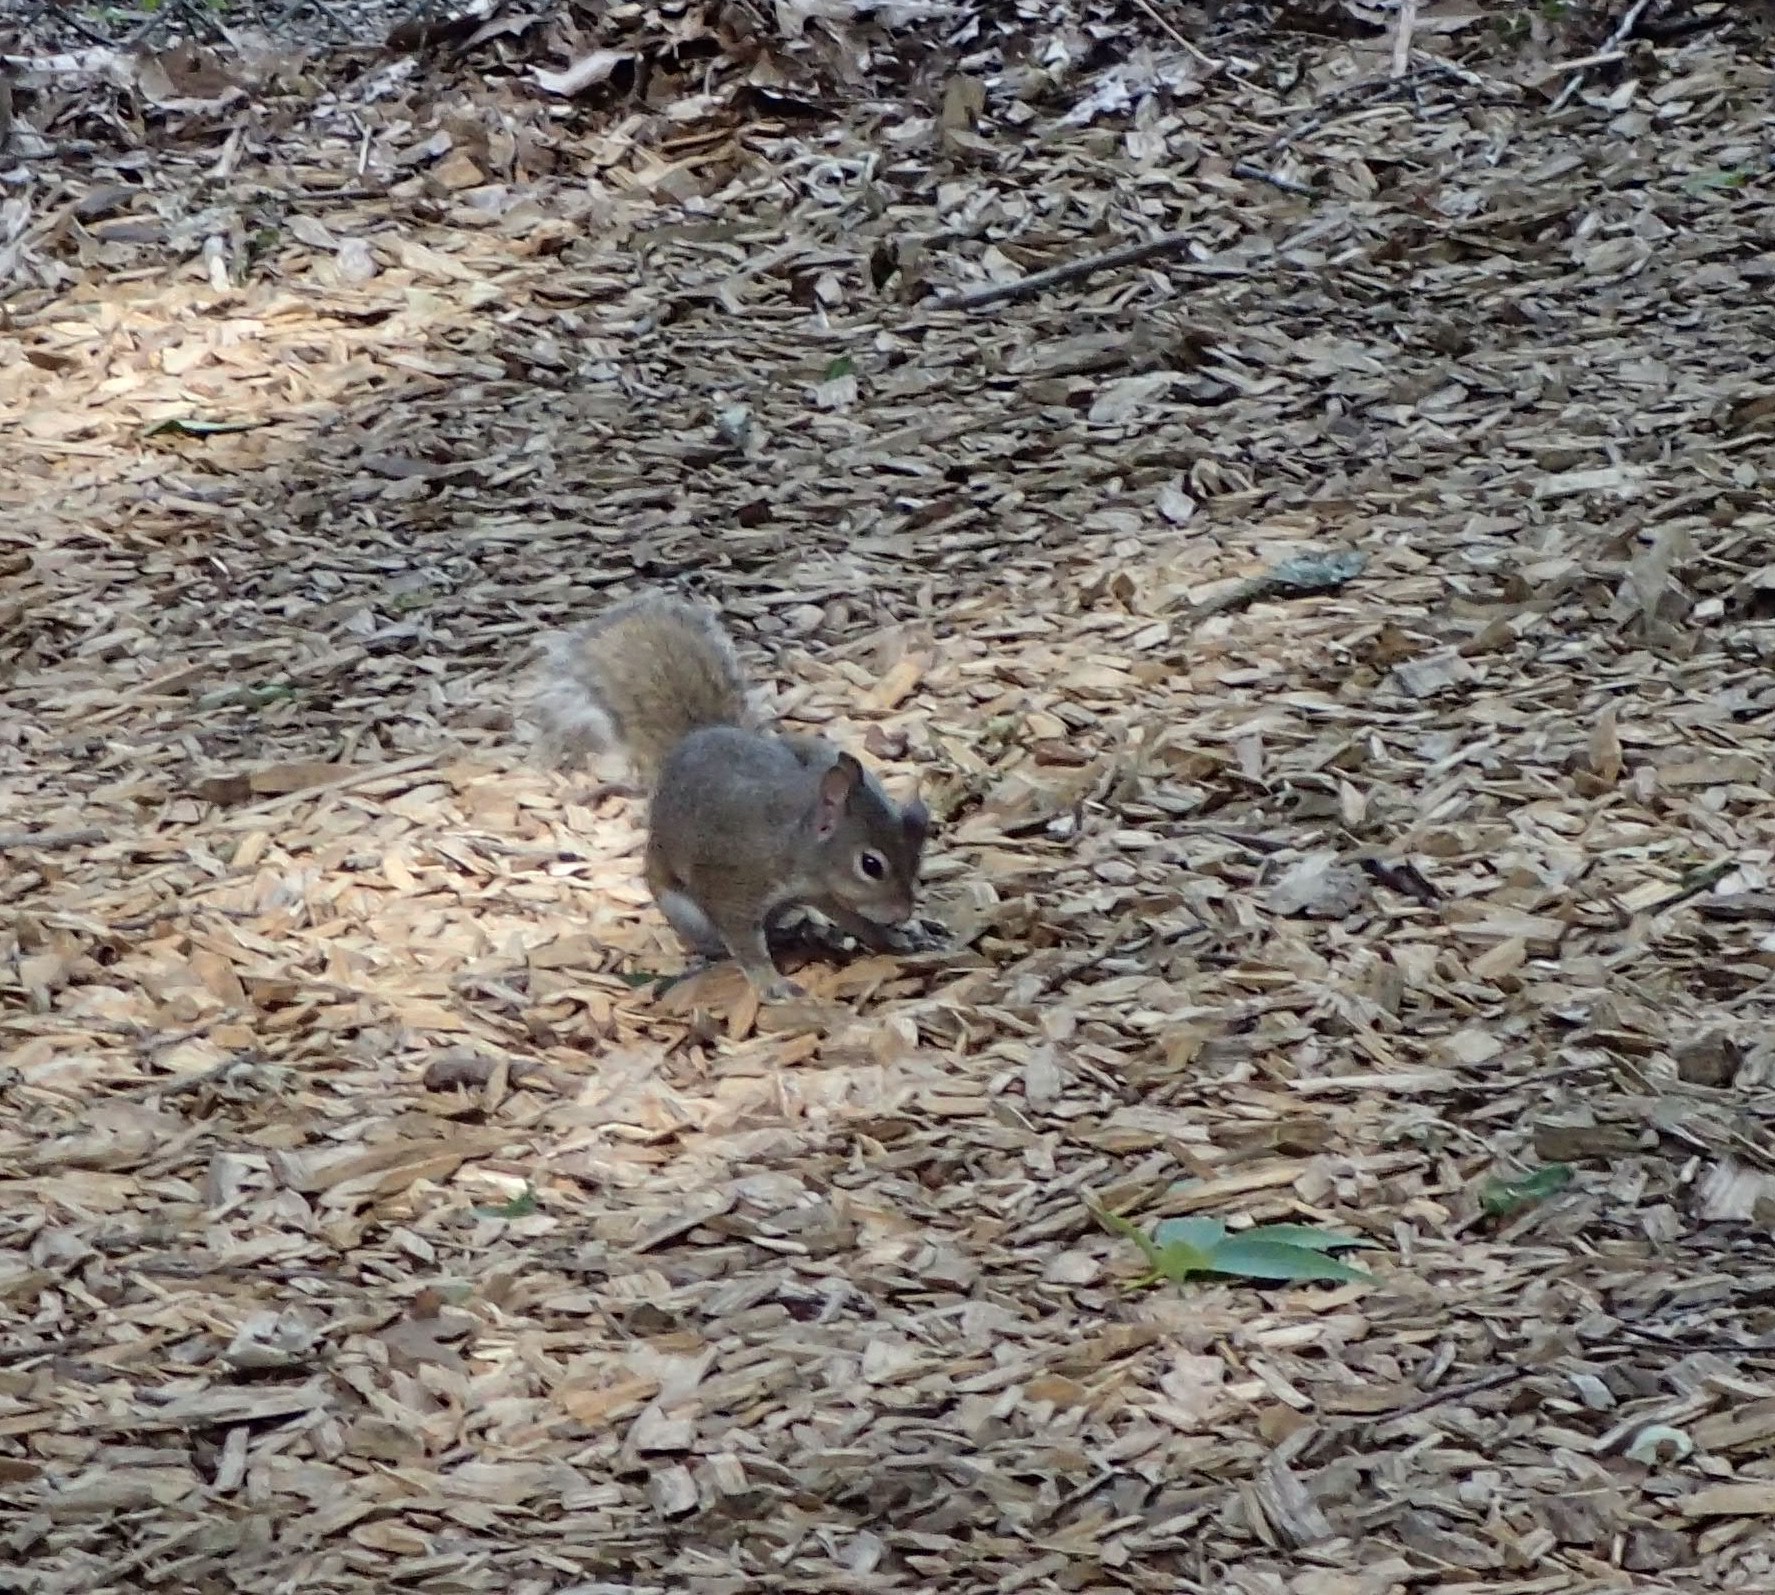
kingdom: Animalia
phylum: Chordata
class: Mammalia
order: Rodentia
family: Sciuridae
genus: Sciurus
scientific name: Sciurus carolinensis
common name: Eastern gray squirrel
